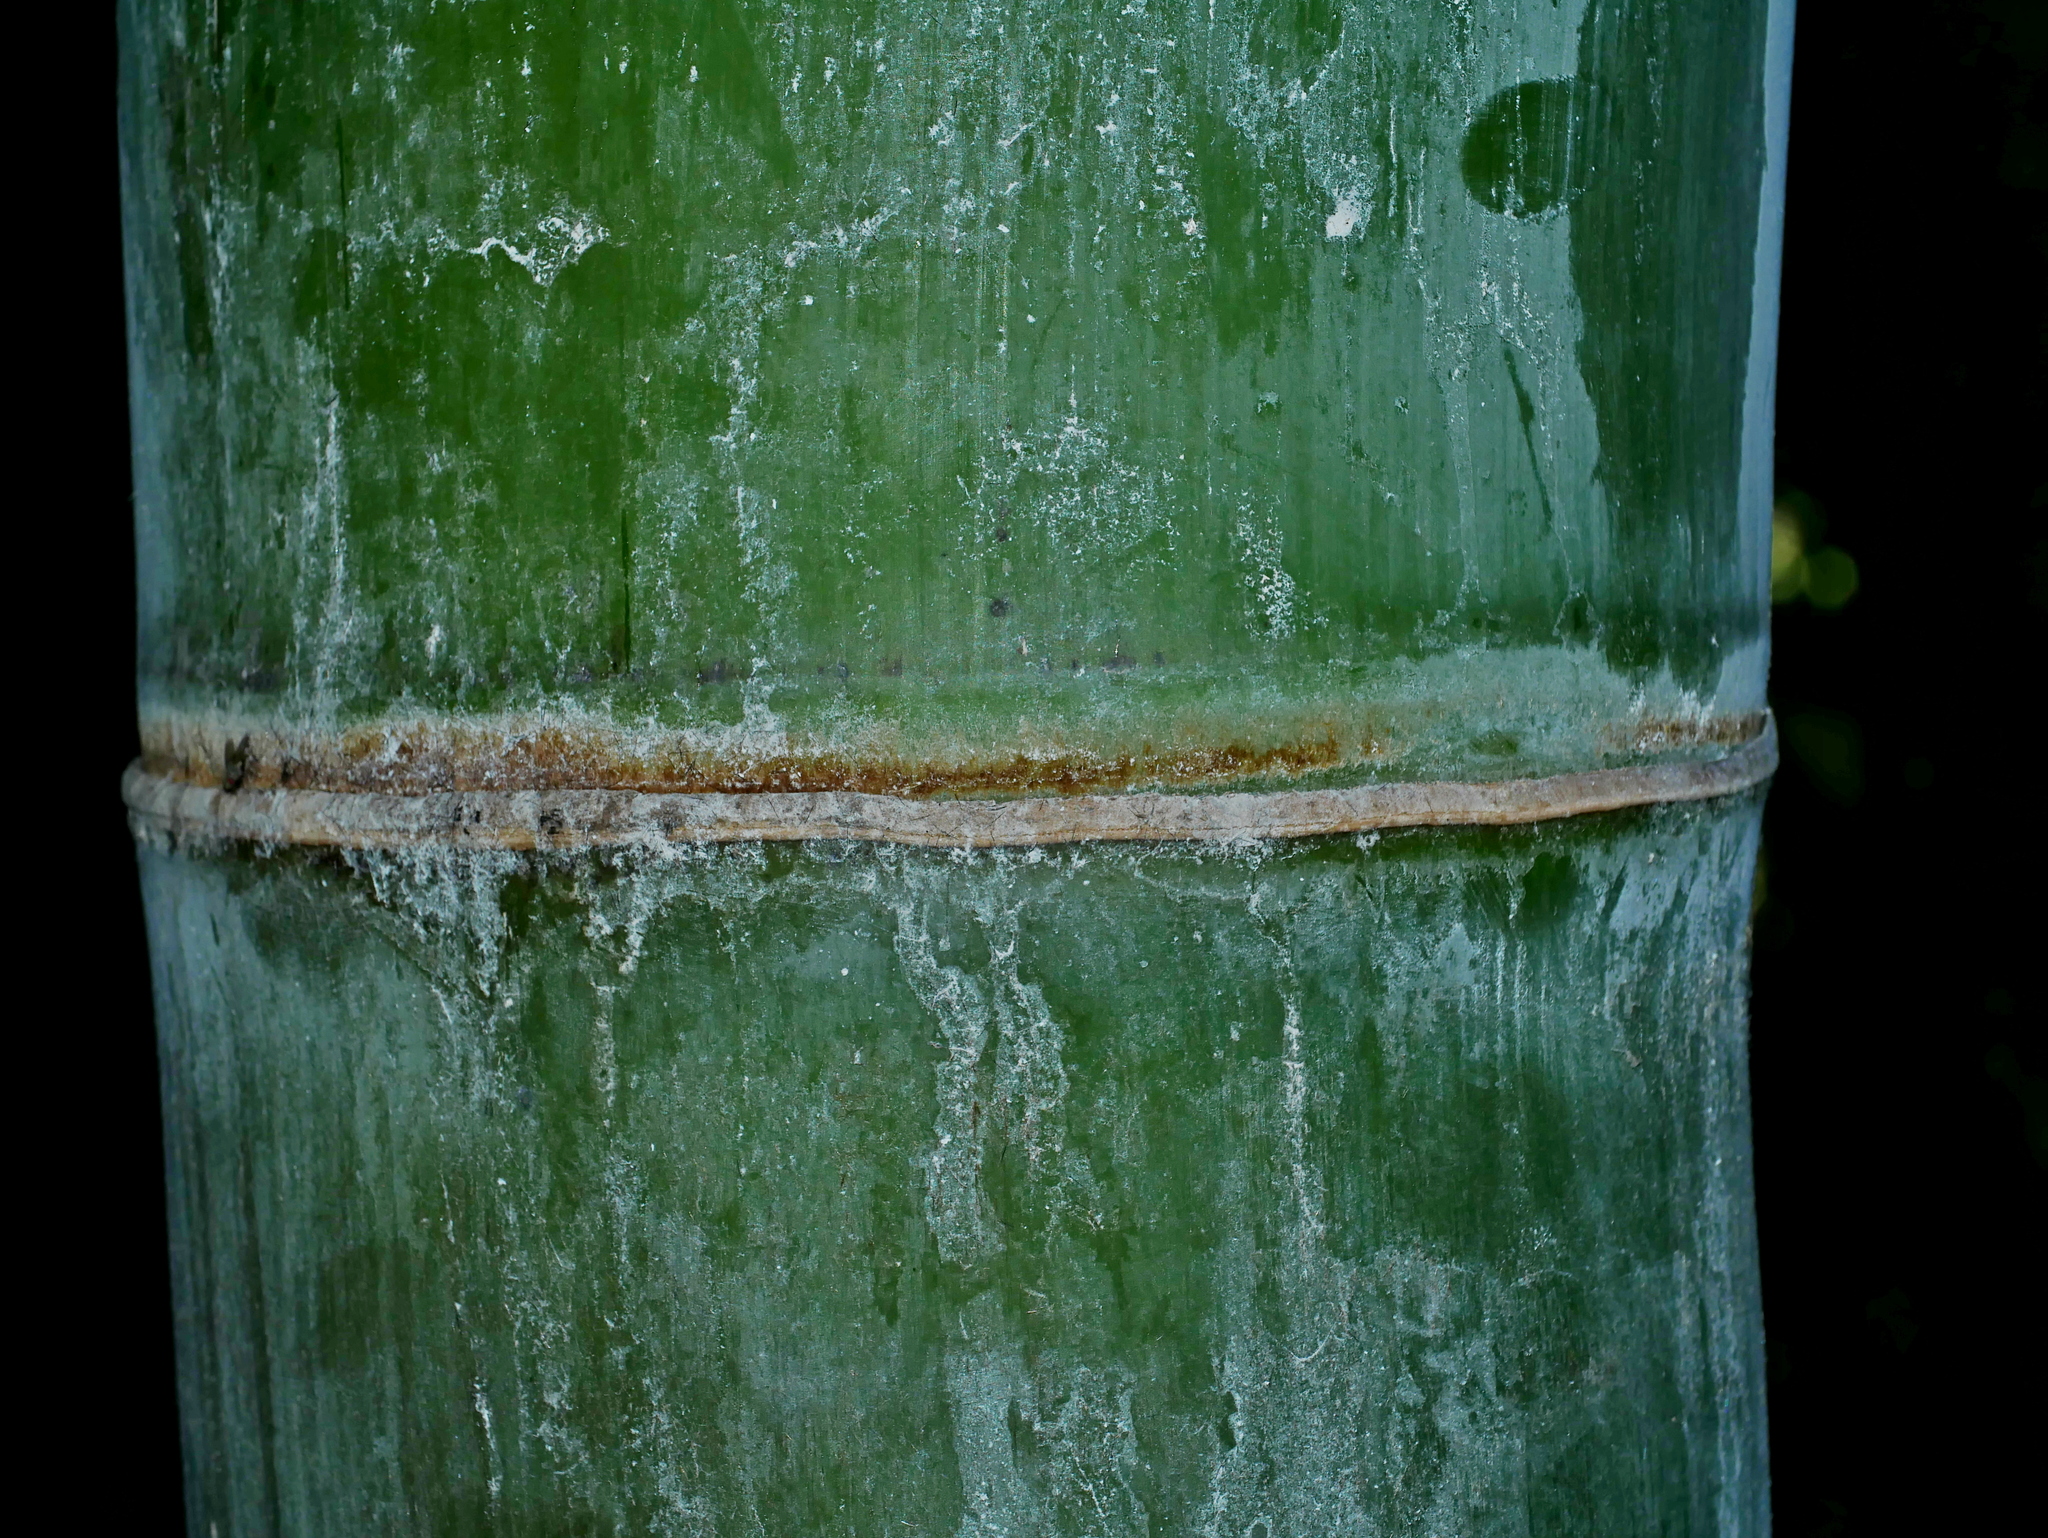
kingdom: Plantae
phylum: Tracheophyta
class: Liliopsida
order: Poales
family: Poaceae
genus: Dendrocalamus
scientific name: Dendrocalamus giganteus
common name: Giant bamboo
